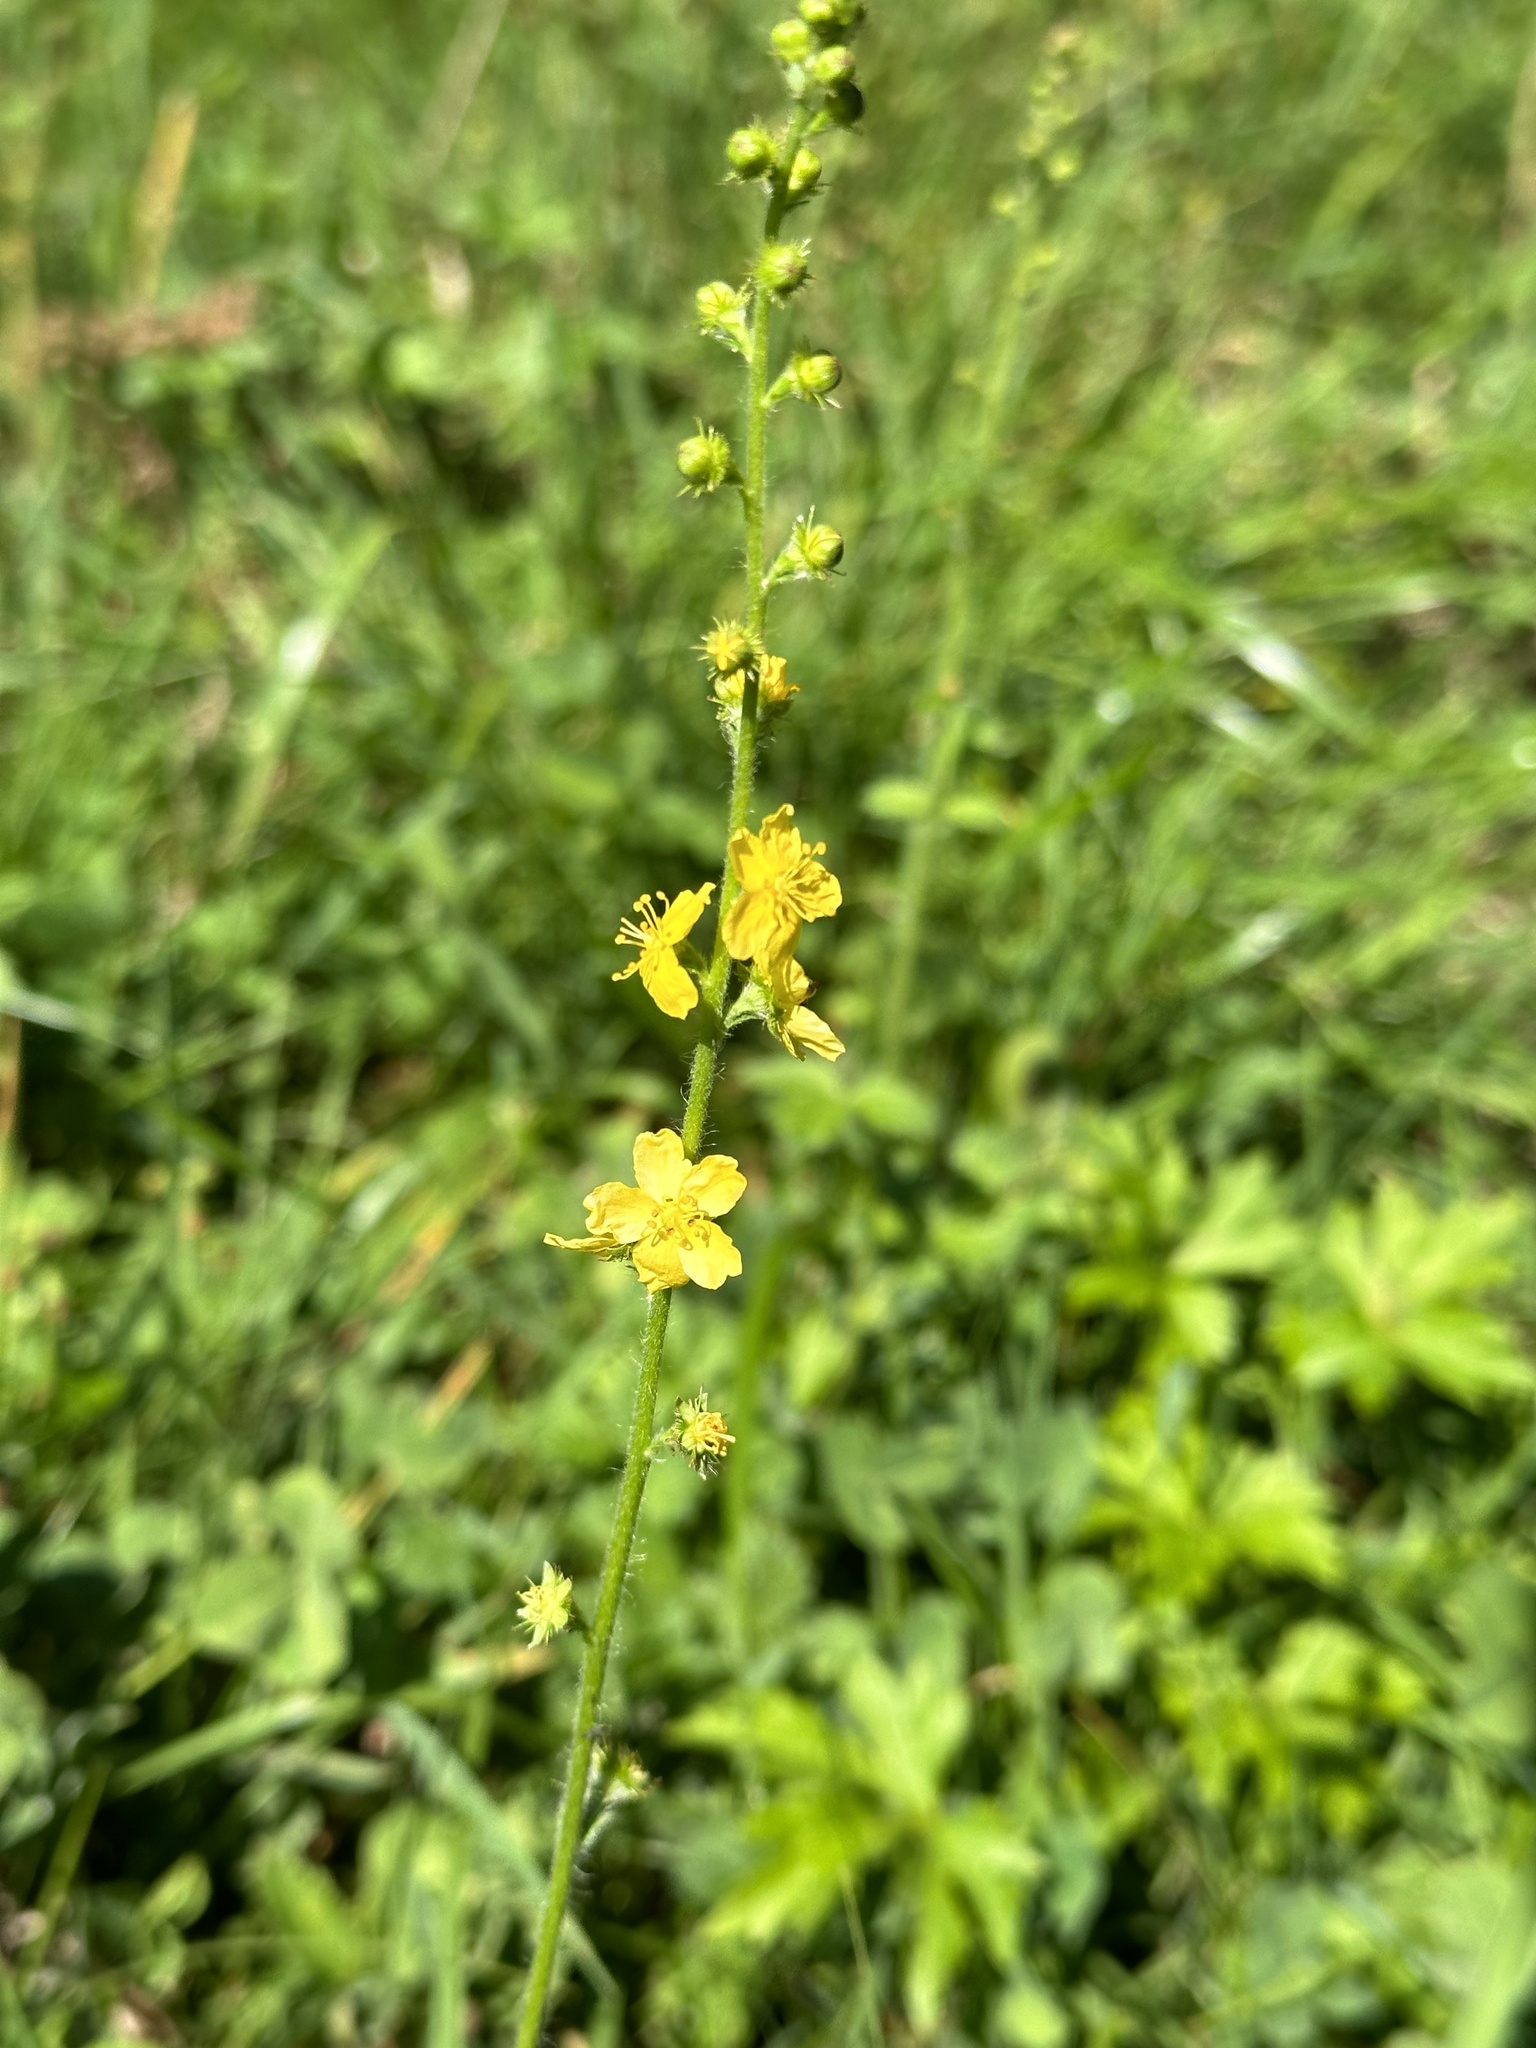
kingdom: Plantae
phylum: Tracheophyta
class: Magnoliopsida
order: Rosales
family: Rosaceae
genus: Agrimonia
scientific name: Agrimonia eupatoria
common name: Agrimony
